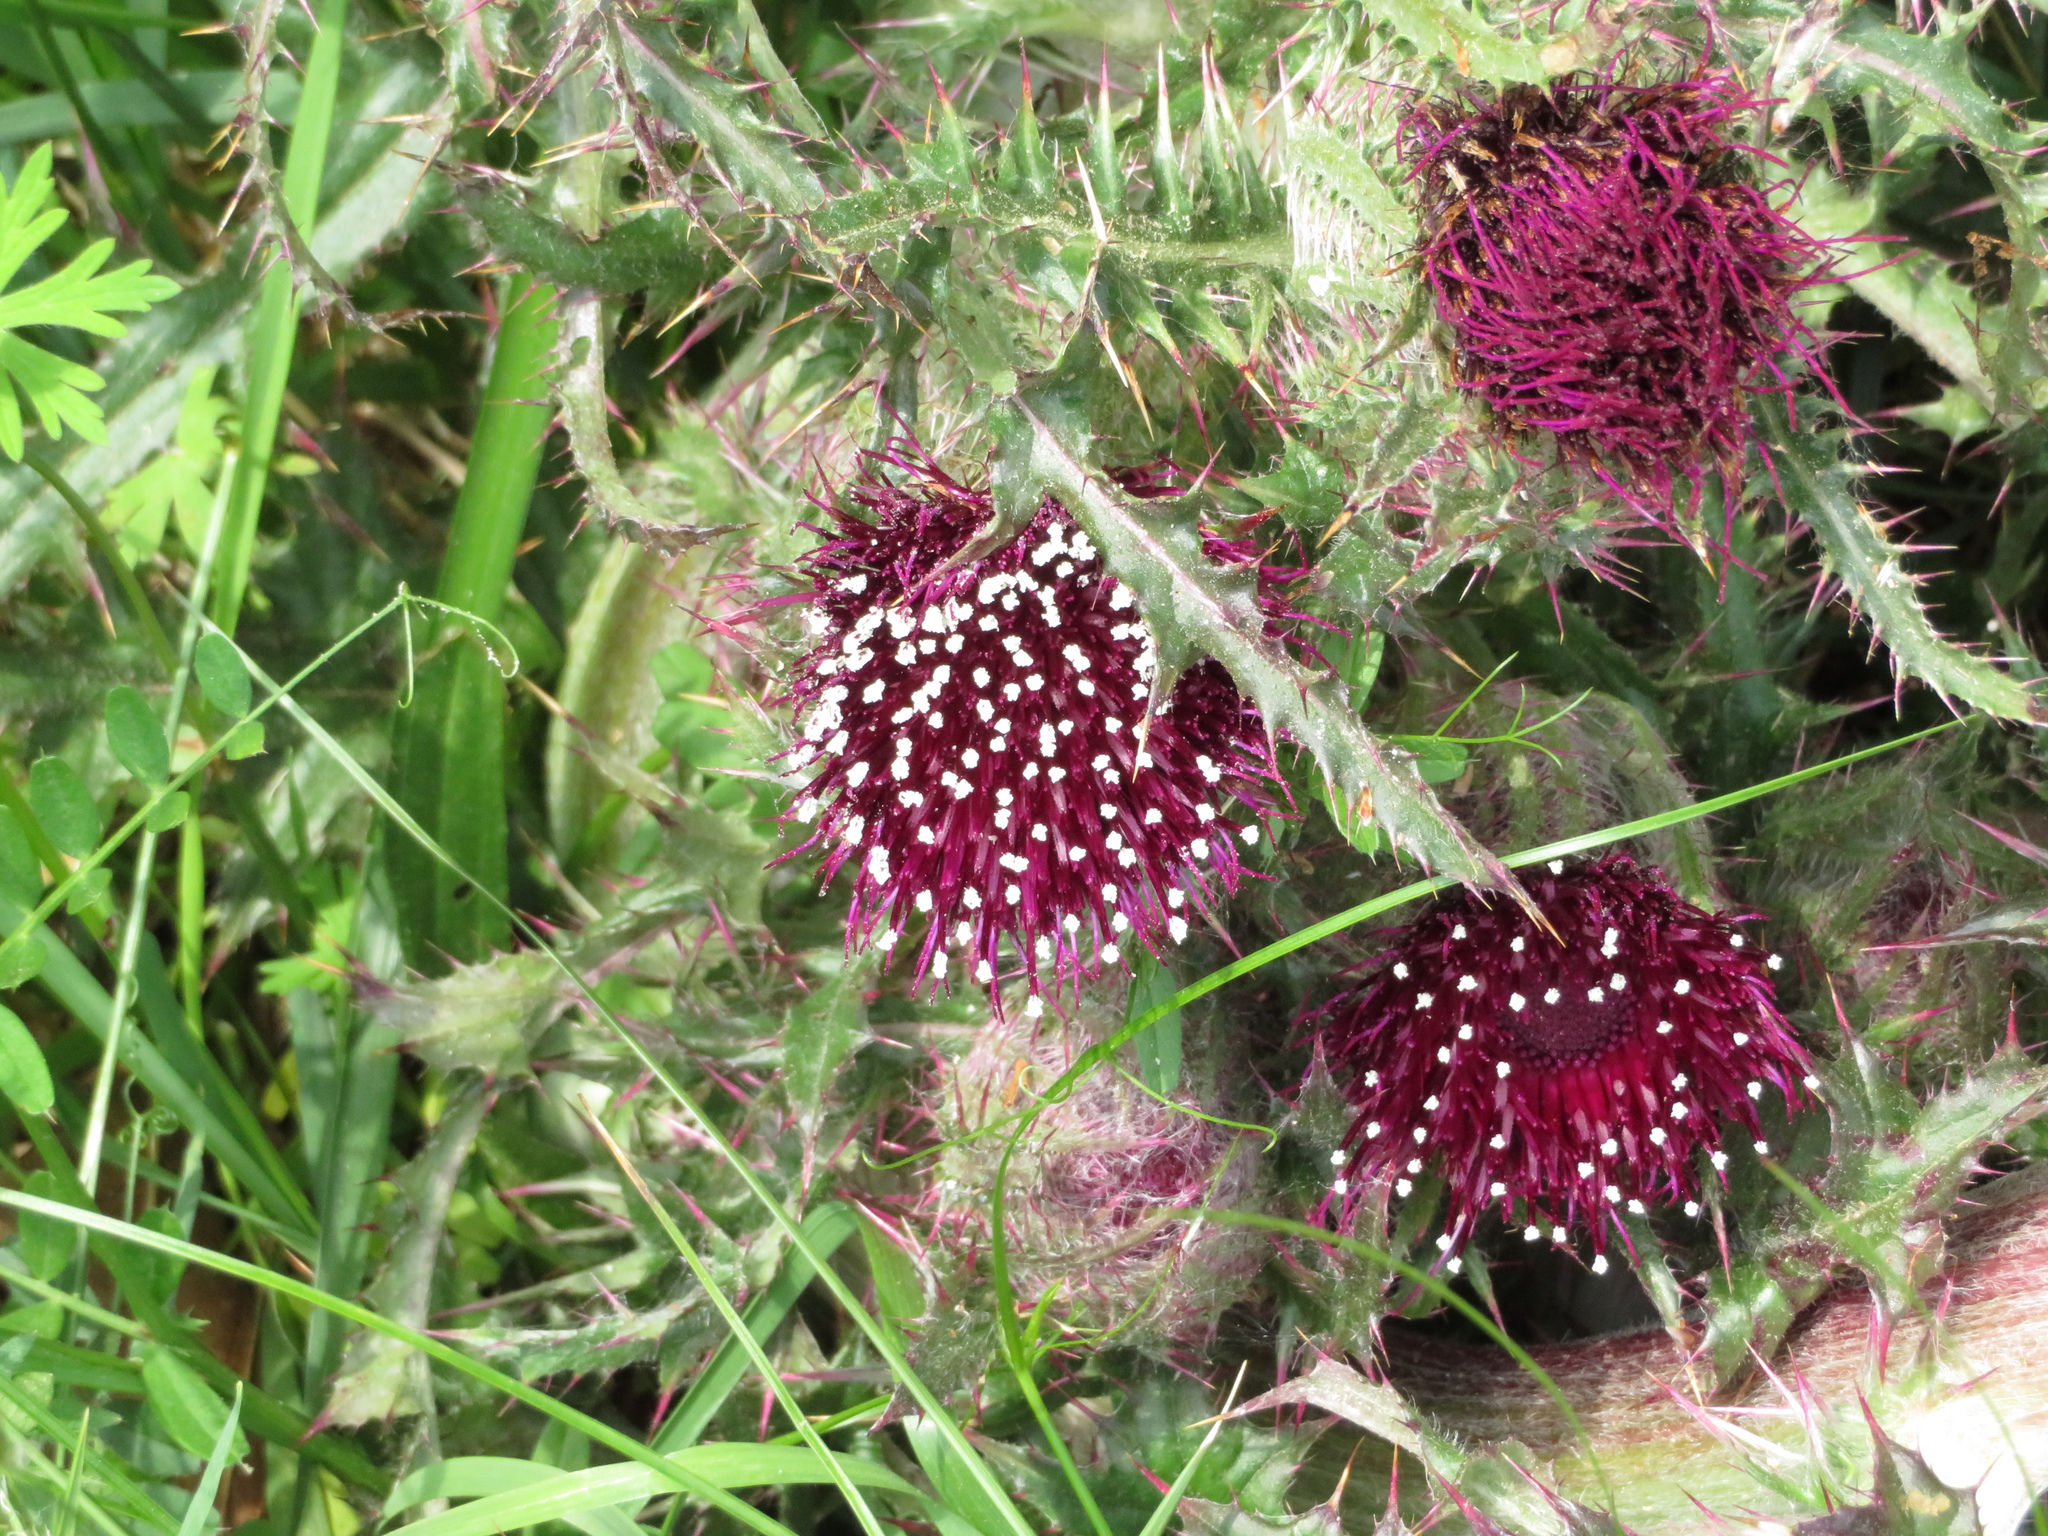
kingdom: Plantae
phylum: Tracheophyta
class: Magnoliopsida
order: Asterales
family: Asteraceae
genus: Cirsium
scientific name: Cirsium horridulum
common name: Bristly thistle
